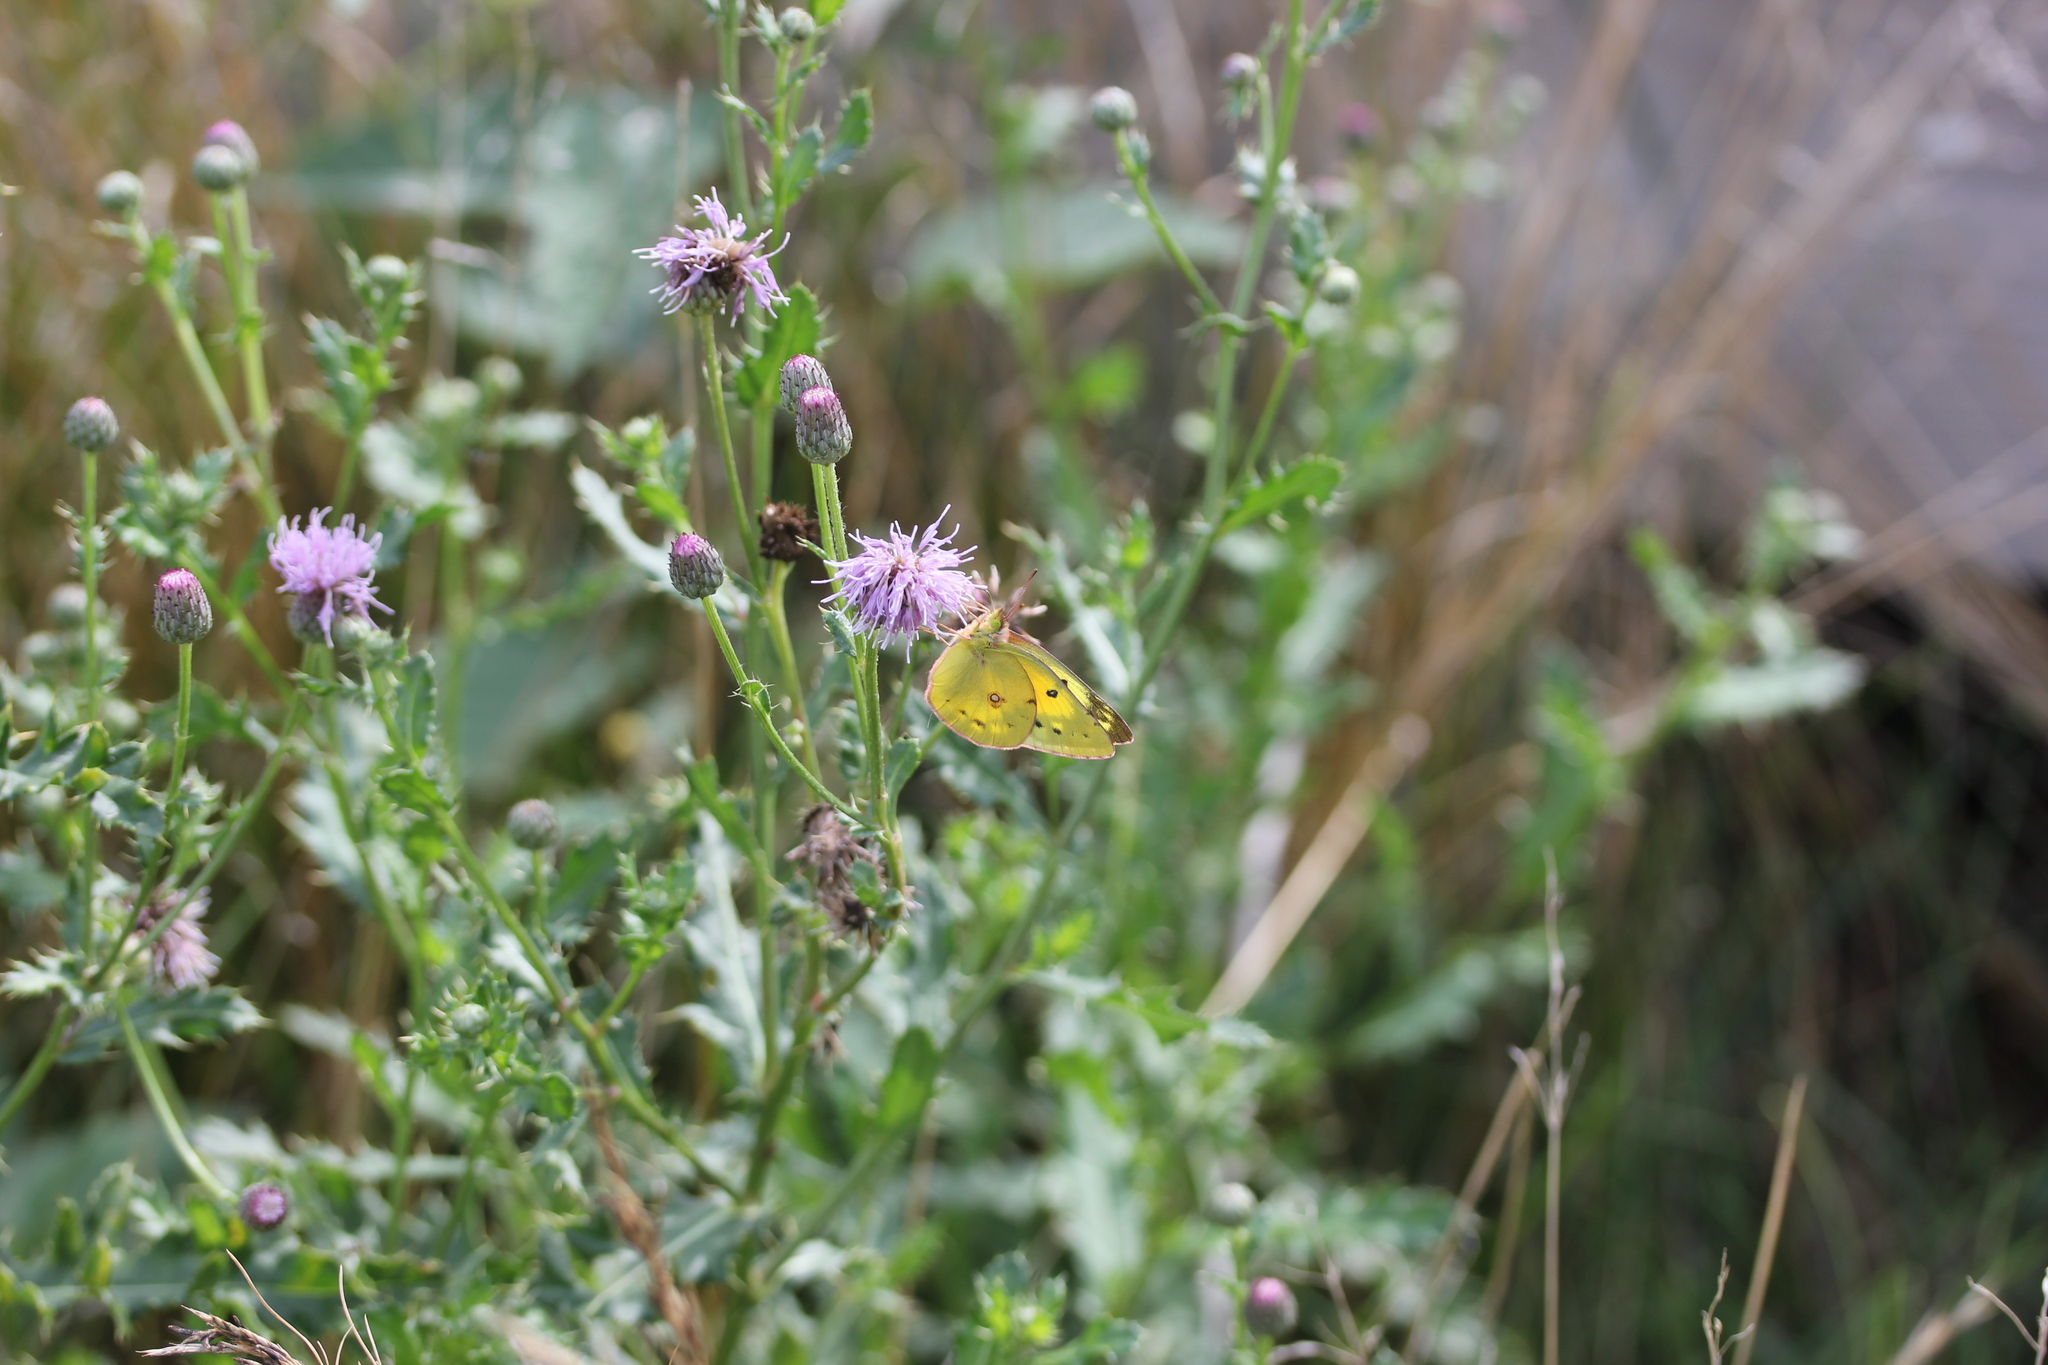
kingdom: Plantae
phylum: Tracheophyta
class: Magnoliopsida
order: Asterales
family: Asteraceae
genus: Cirsium
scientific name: Cirsium arvense
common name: Creeping thistle
